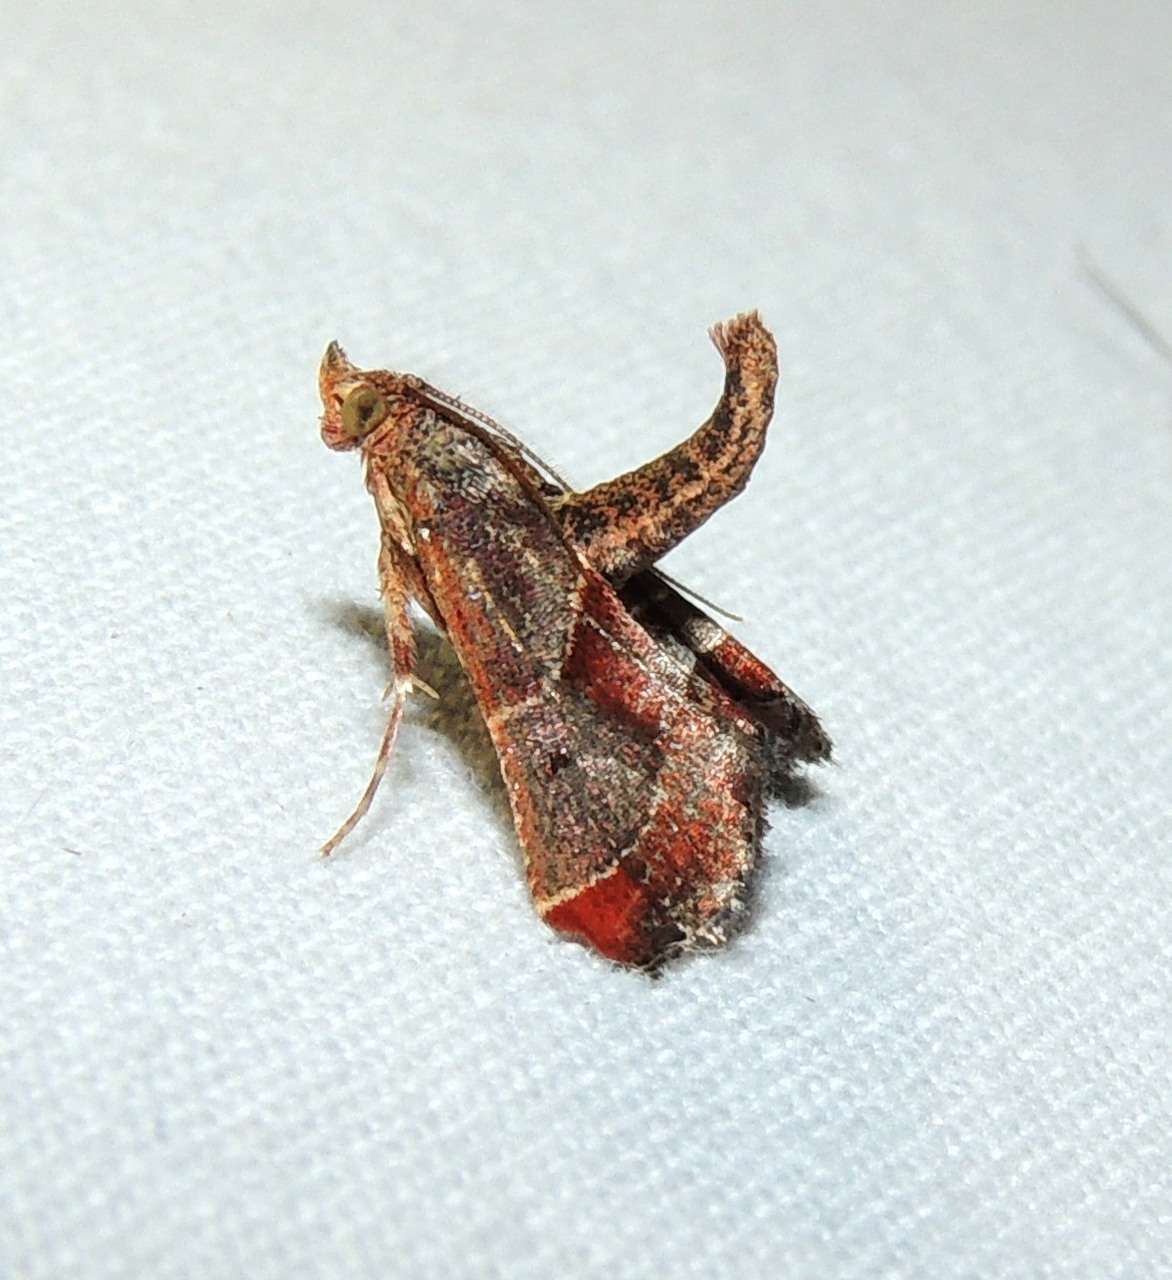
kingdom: Animalia
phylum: Arthropoda
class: Insecta
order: Lepidoptera
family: Pyralidae
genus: Gauna
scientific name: Gauna aegusalis
